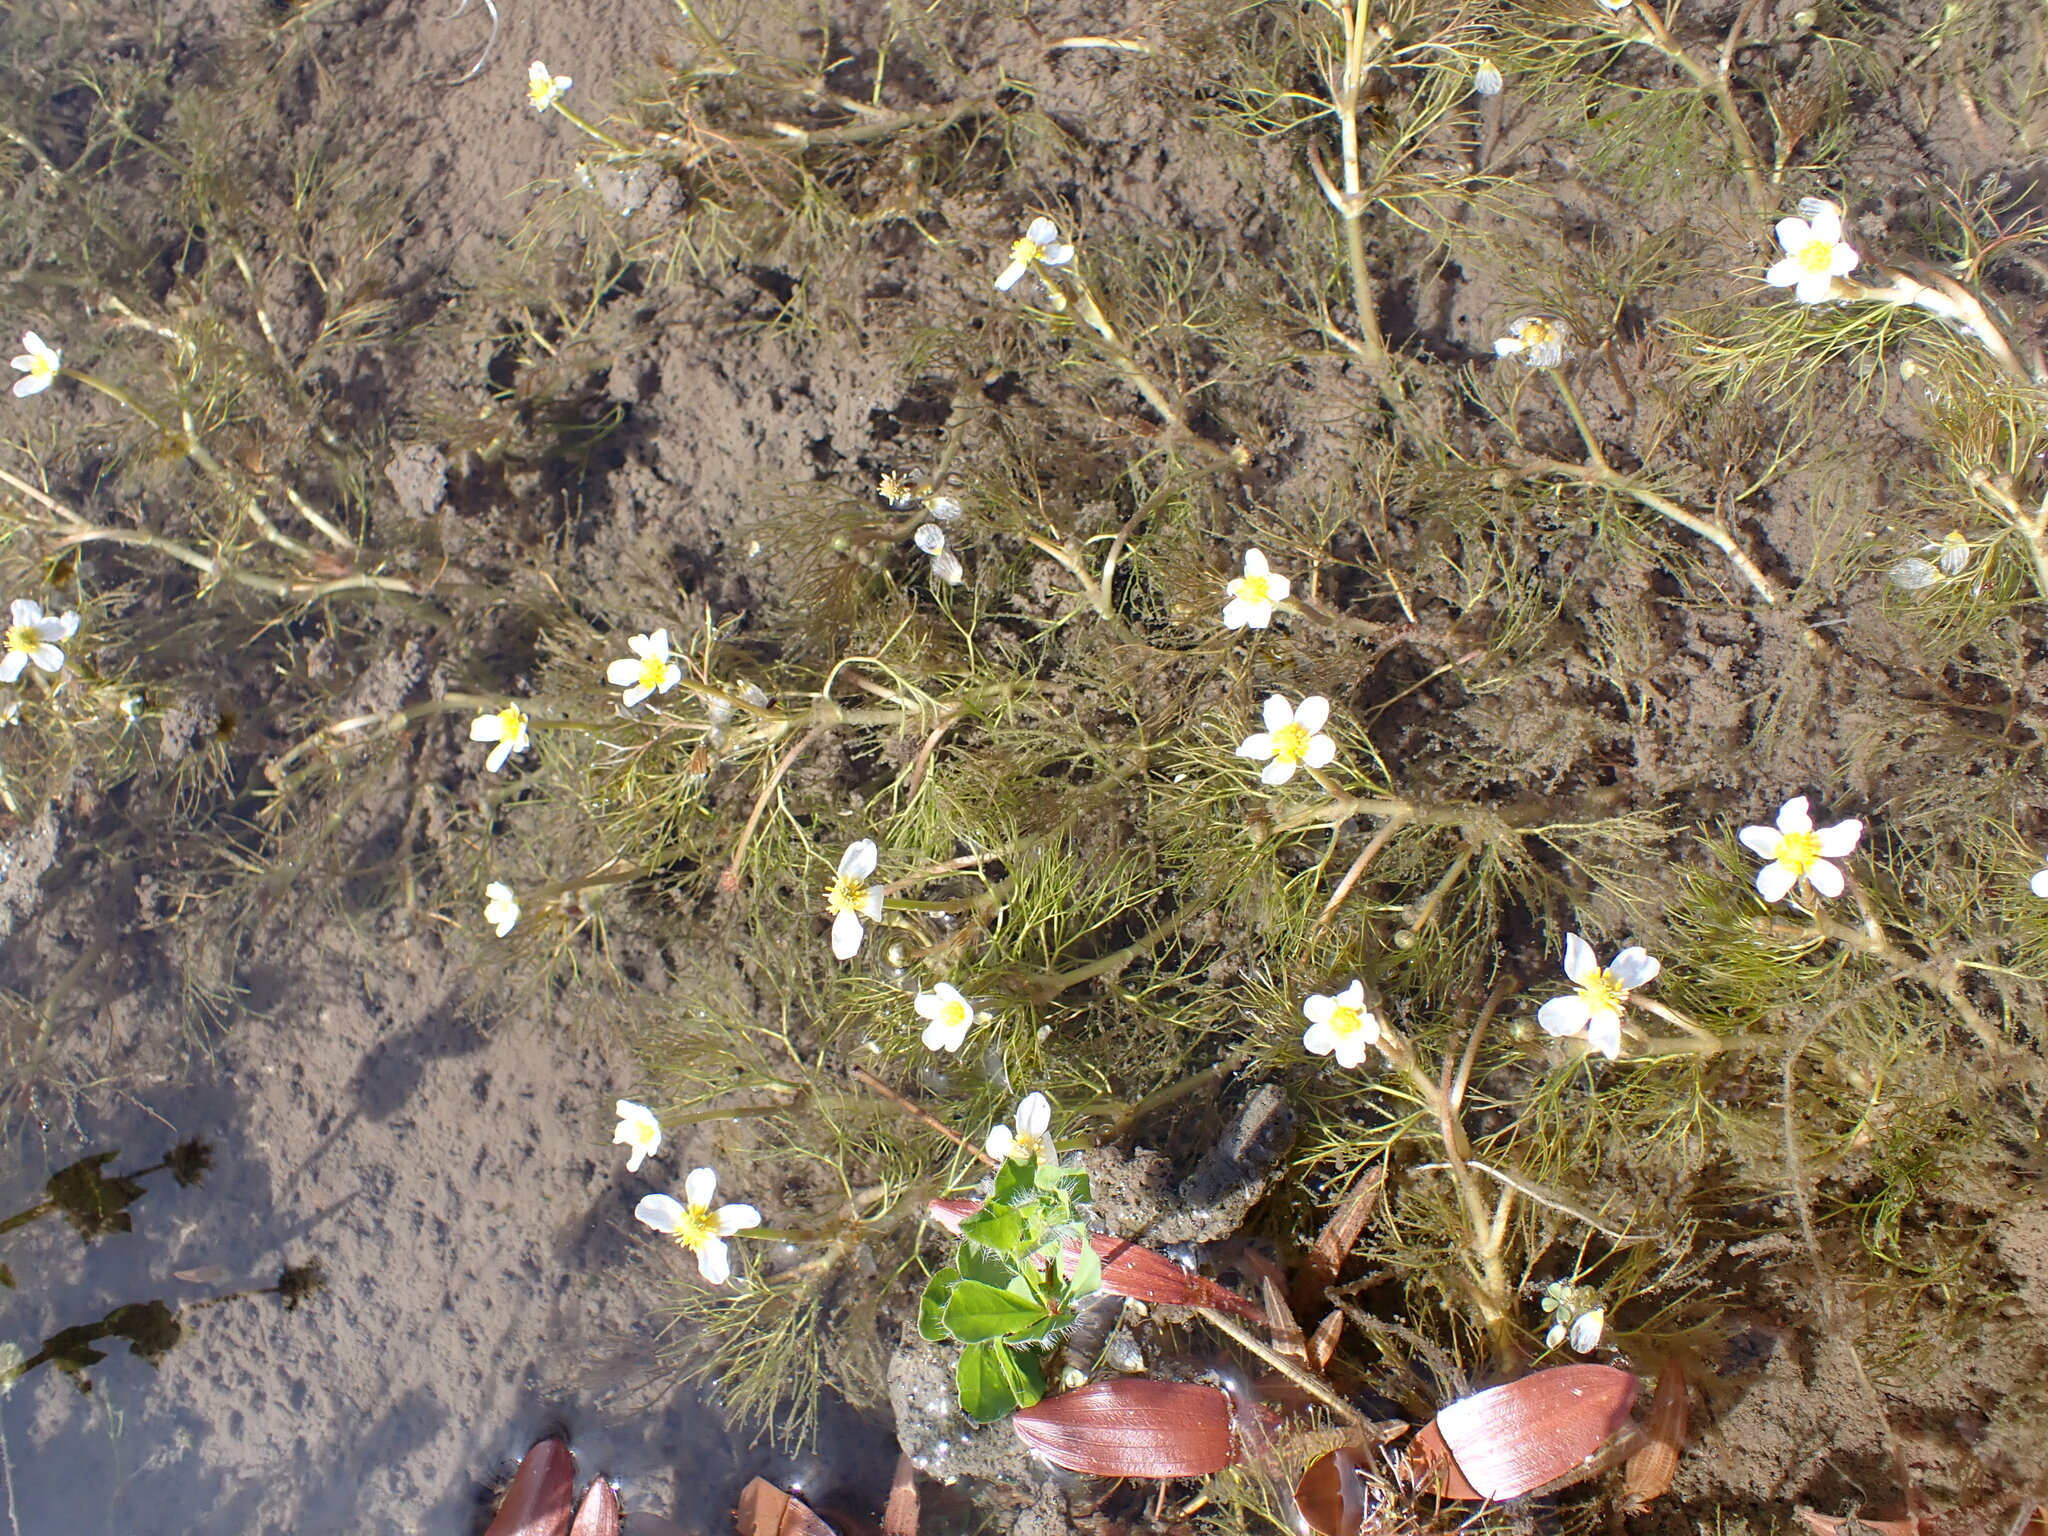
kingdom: Plantae
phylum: Tracheophyta
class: Magnoliopsida
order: Ranunculales
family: Ranunculaceae
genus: Ranunculus
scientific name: Ranunculus trichophyllus
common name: Thread-leaved water-crowfoot
